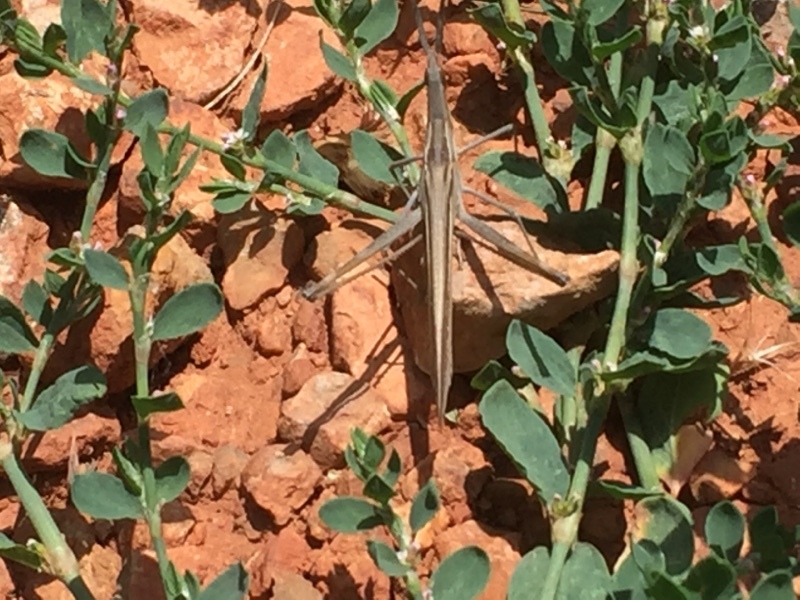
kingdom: Animalia
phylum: Arthropoda
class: Insecta
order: Orthoptera
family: Acrididae
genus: Acrida
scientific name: Acrida anatolica
